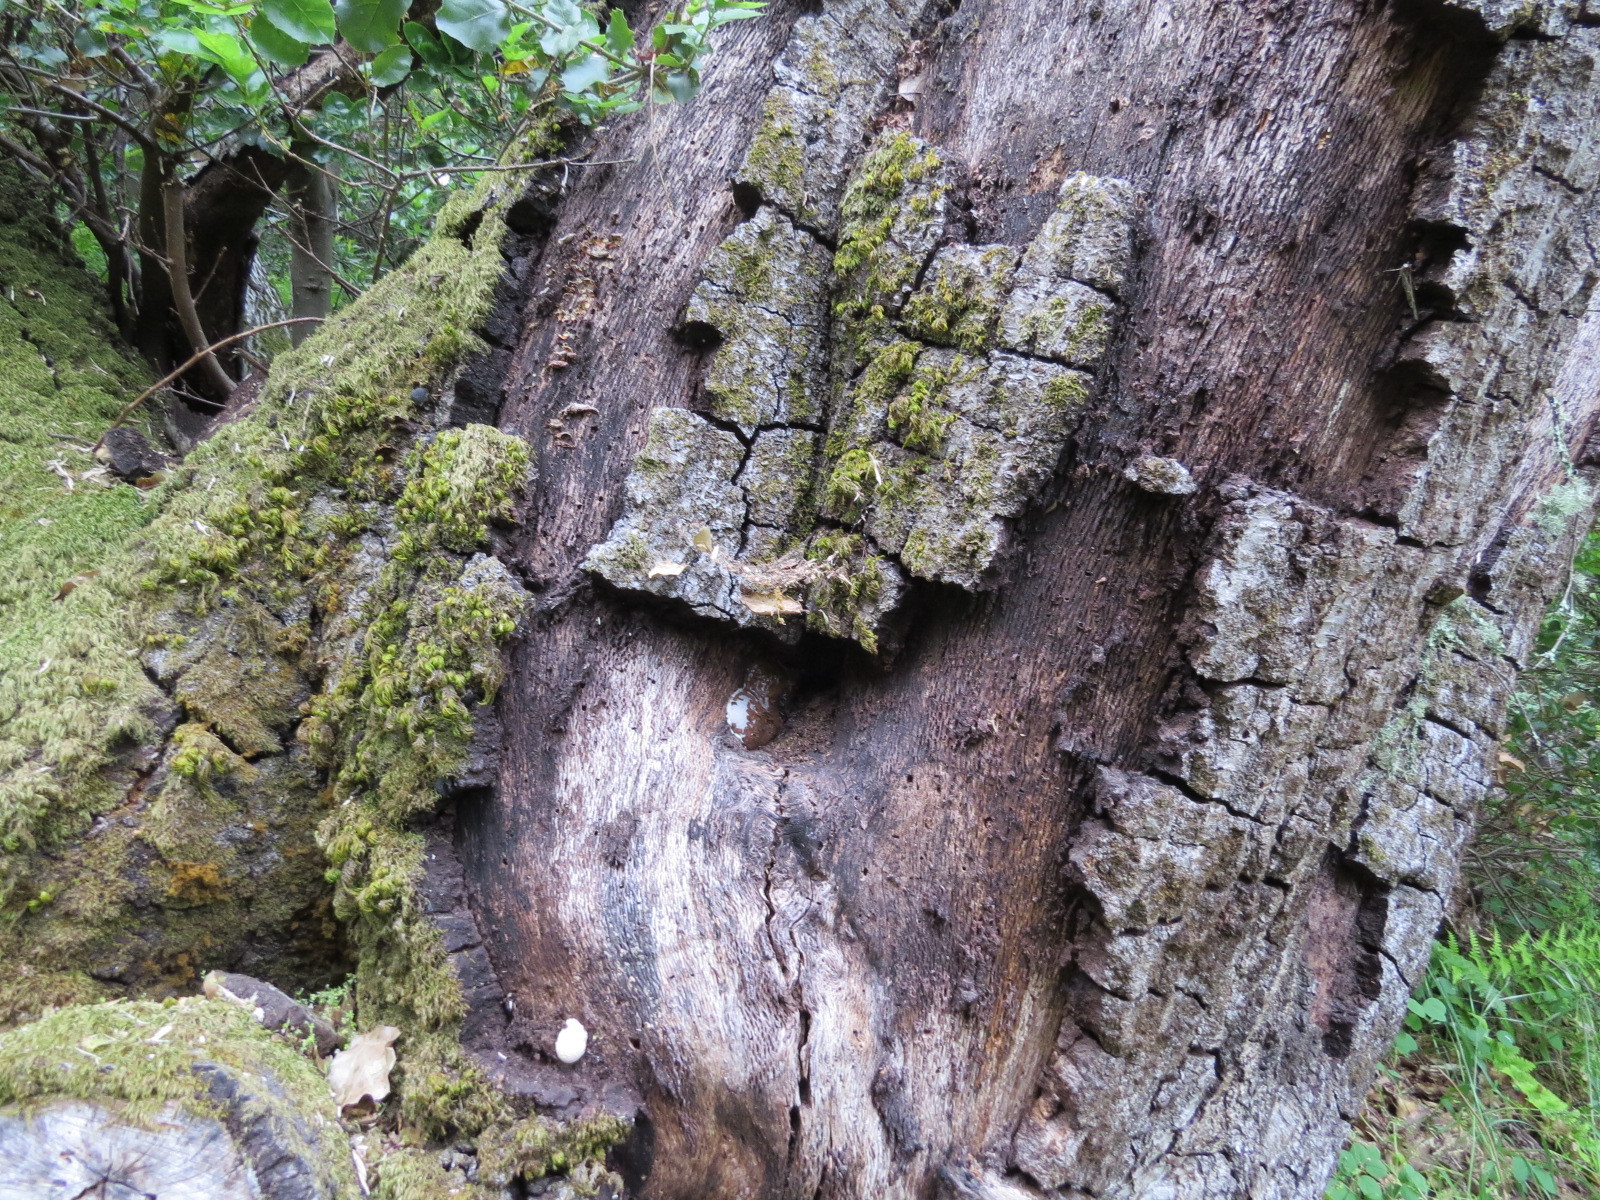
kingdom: Protozoa
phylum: Mycetozoa
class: Myxomycetes
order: Cribrariales
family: Tubiferaceae
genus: Reticularia
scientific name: Reticularia lycoperdon
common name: False puffball
